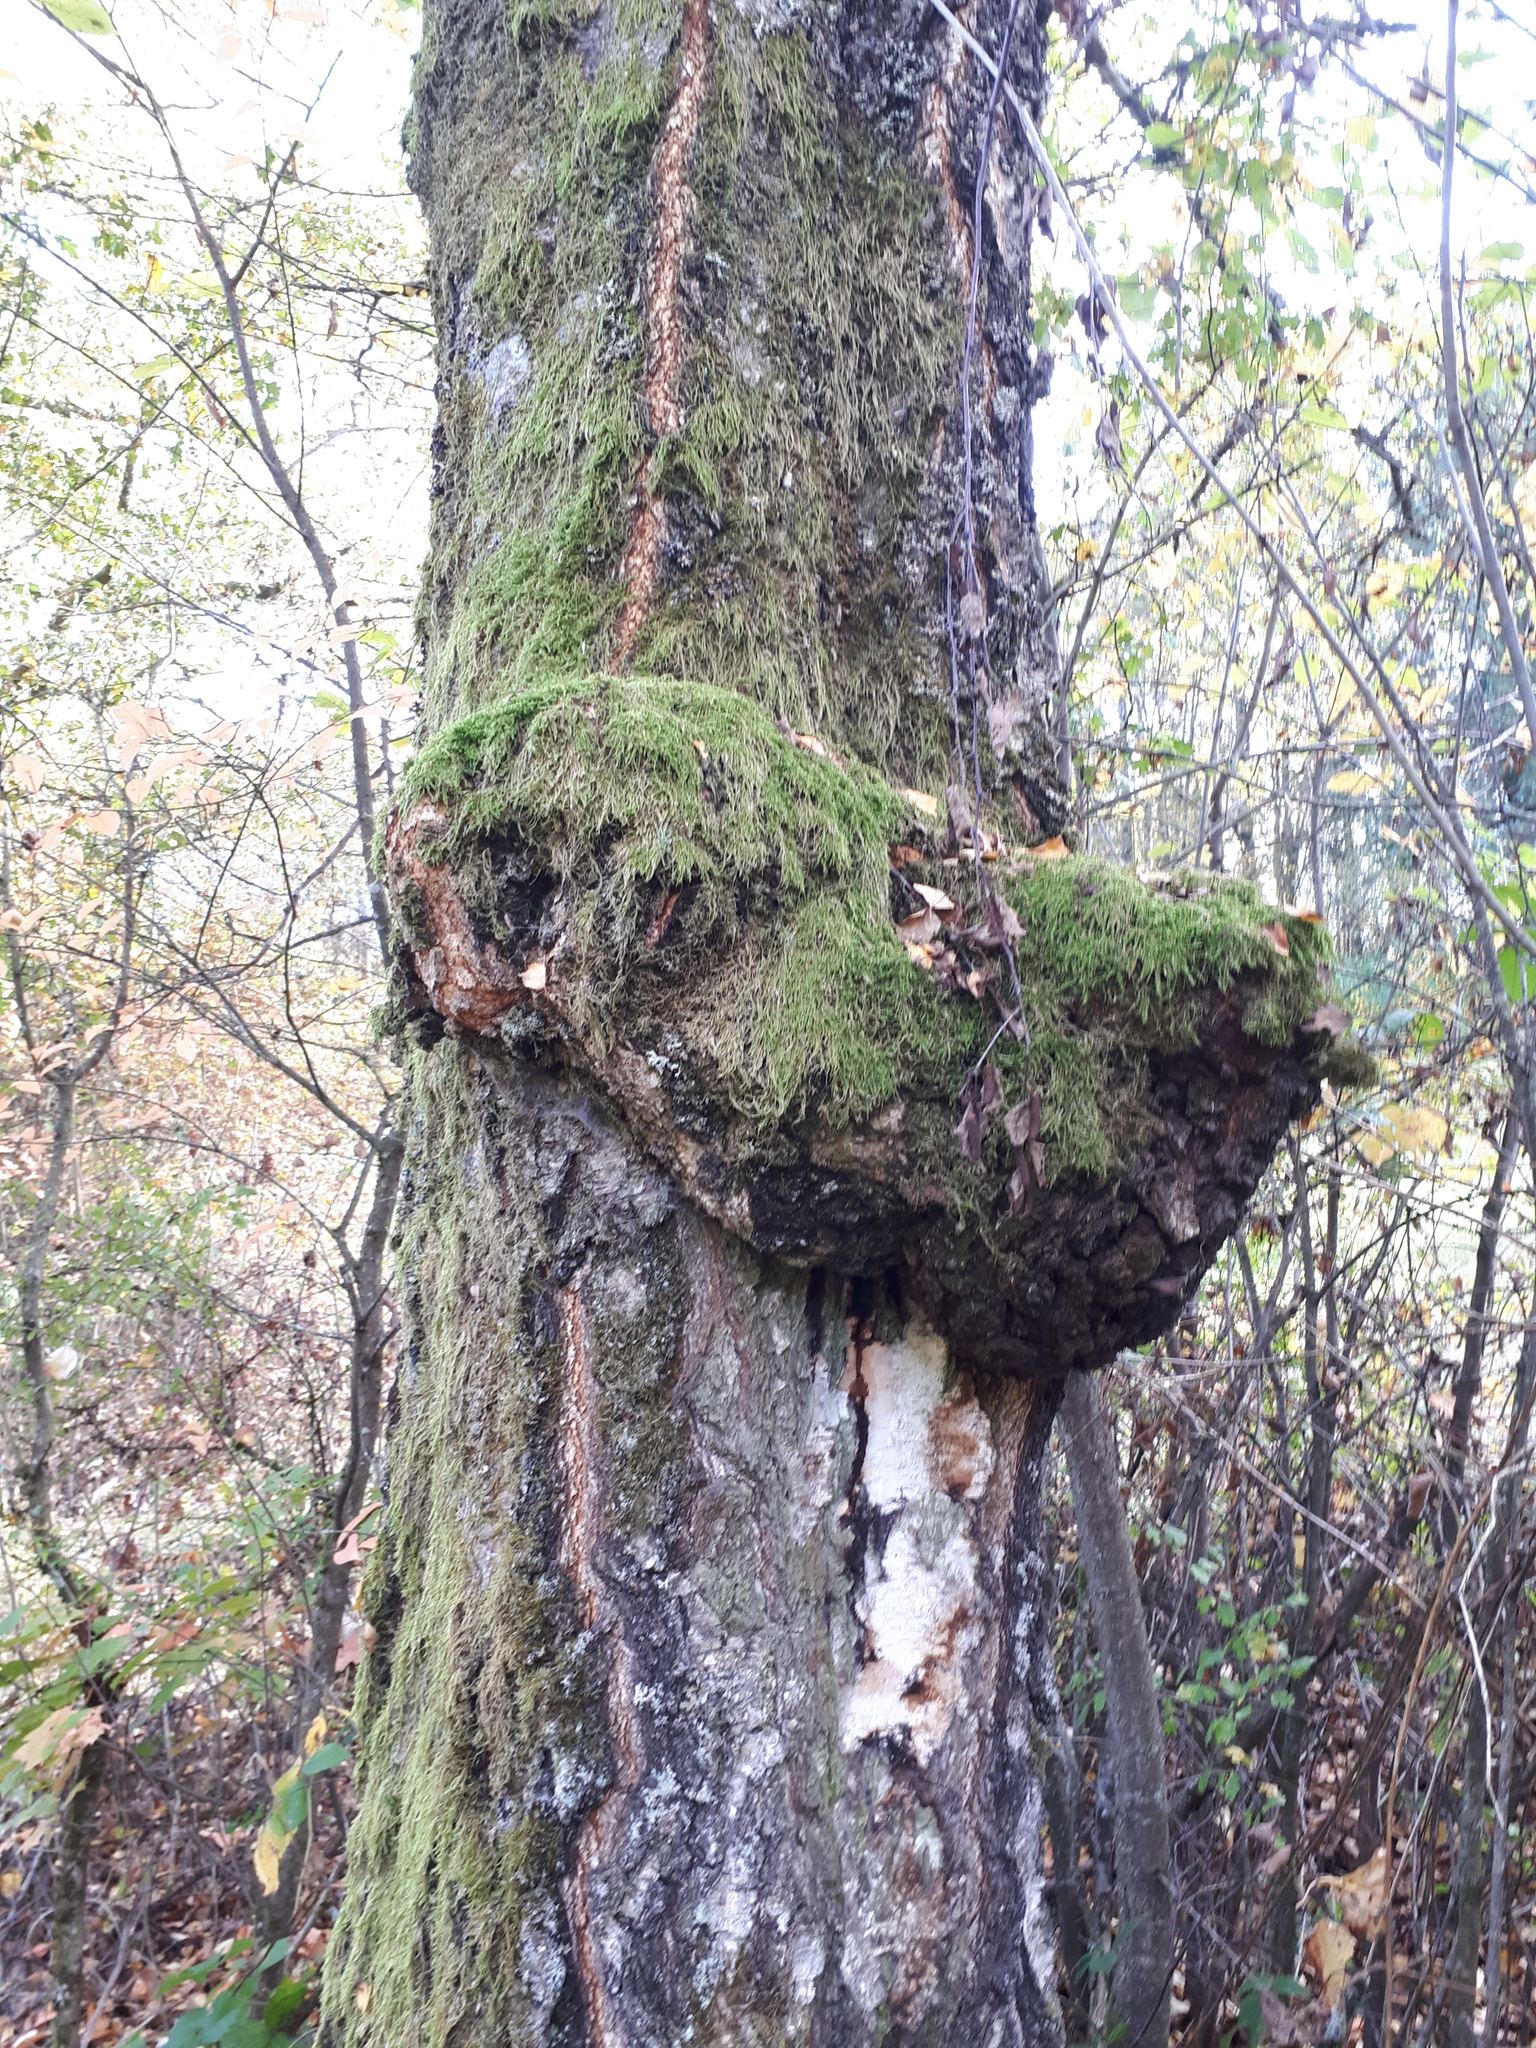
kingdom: Bacteria
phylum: Proteobacteria
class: Alphaproteobacteria
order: Rhizobiales
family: Rhizobiaceae
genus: Rhizobium
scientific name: Rhizobium Agrobacterium radiobacter
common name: Bacterial crown gall
